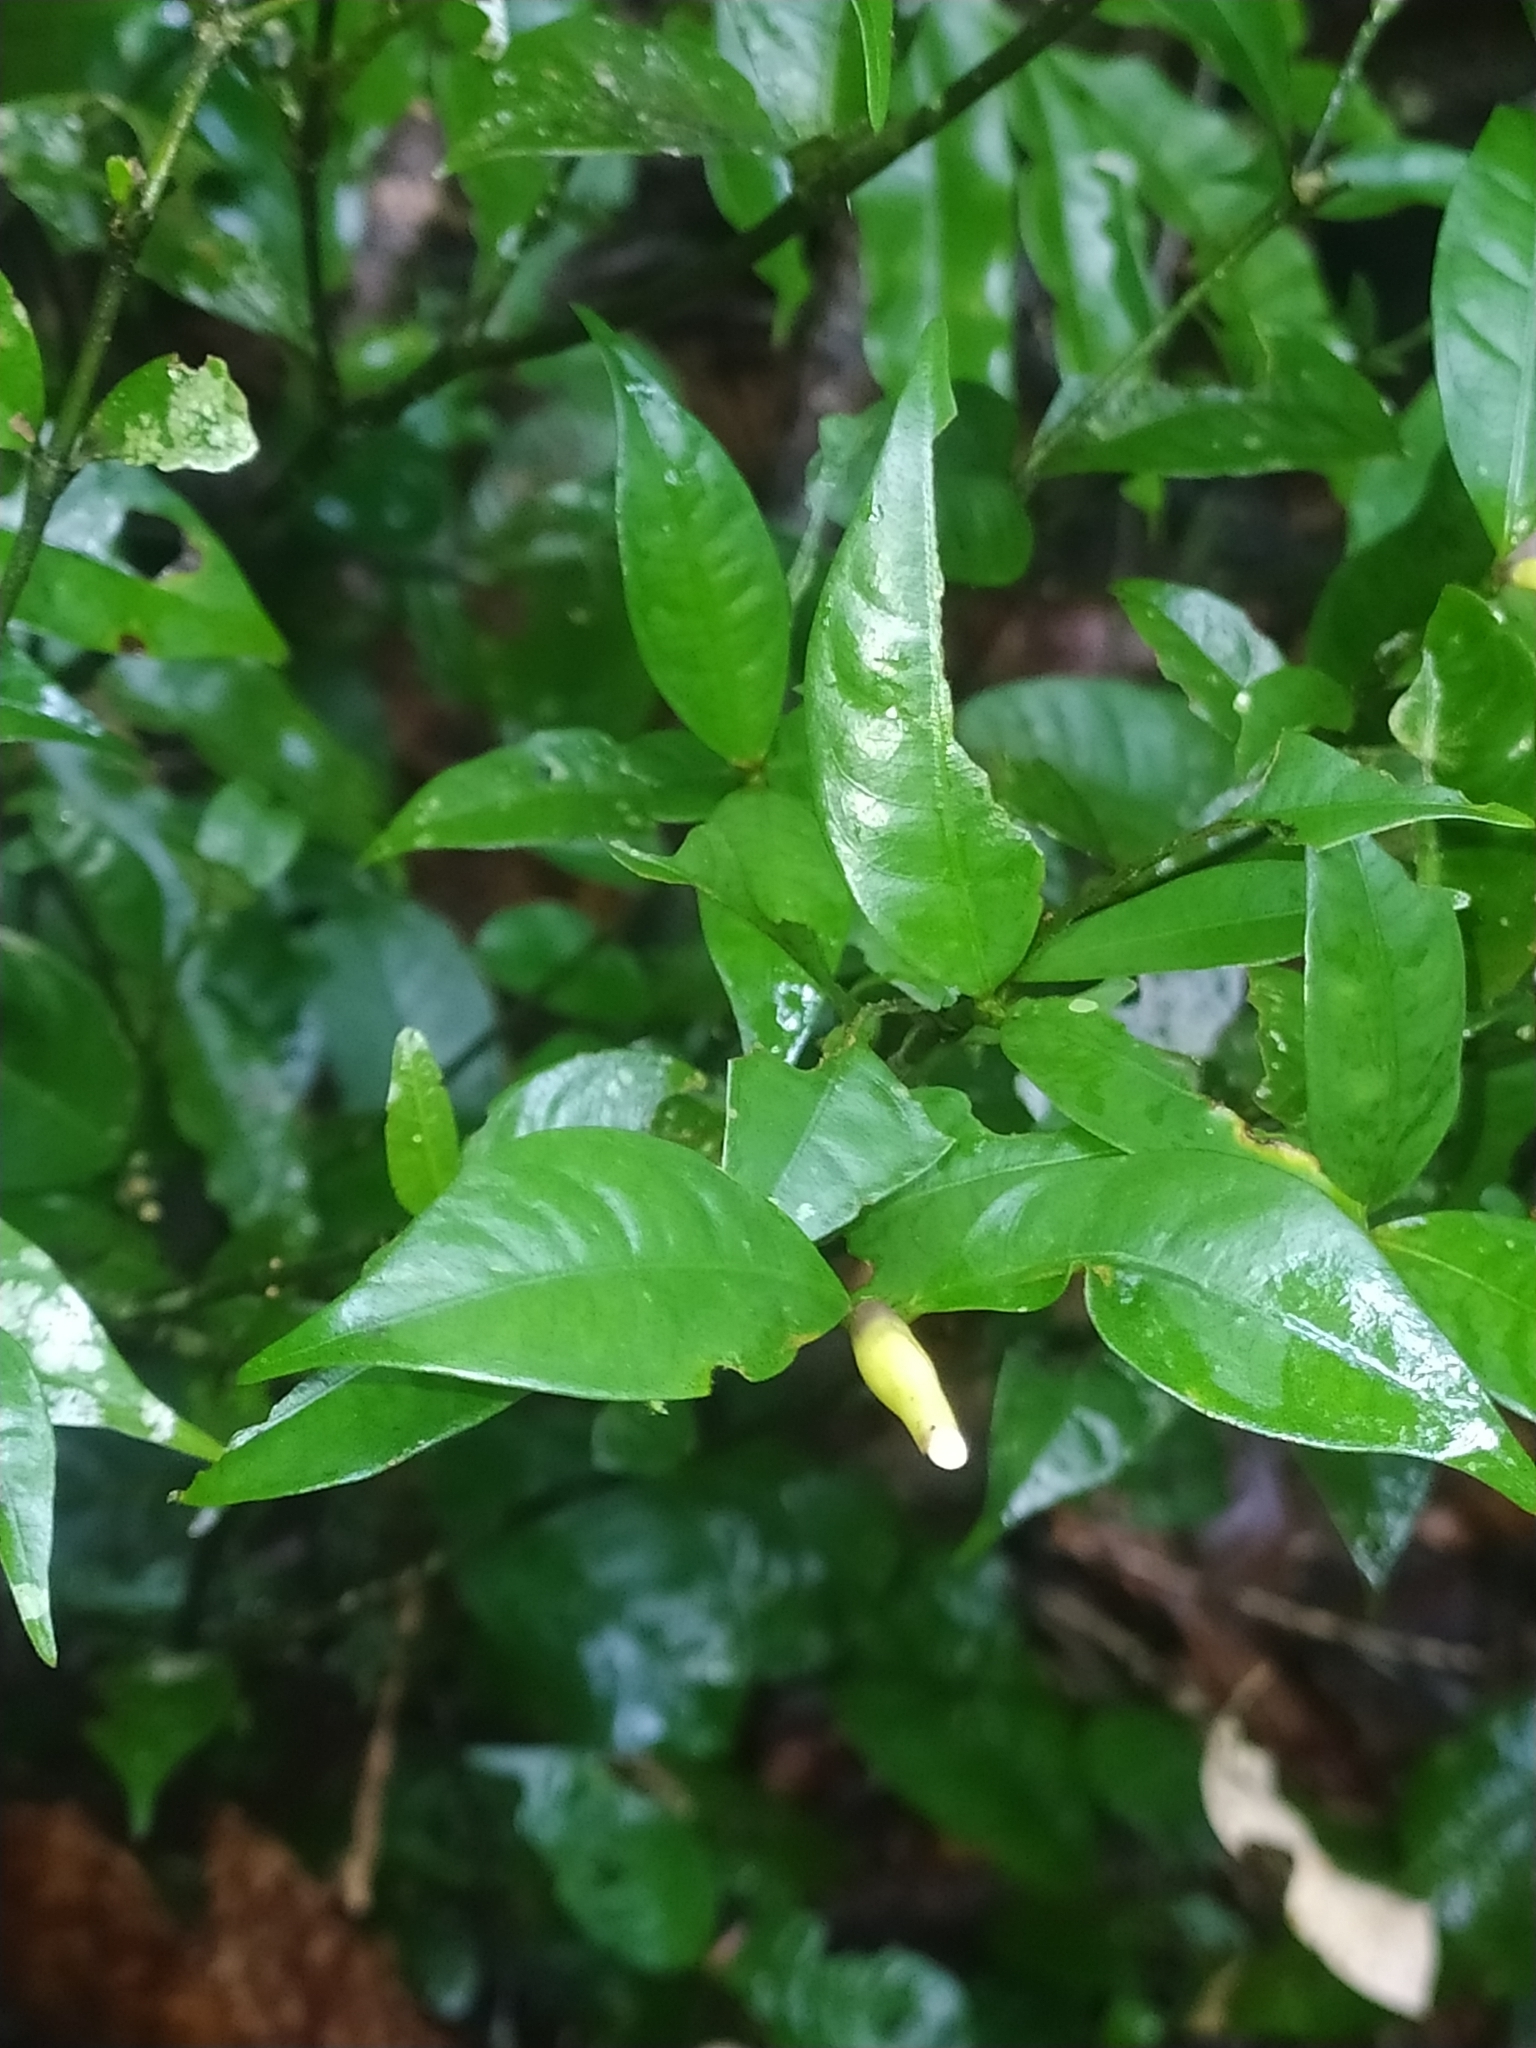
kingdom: Plantae
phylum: Tracheophyta
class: Magnoliopsida
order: Gentianales
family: Rubiaceae
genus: Palicourea
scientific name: Palicourea oblonga
